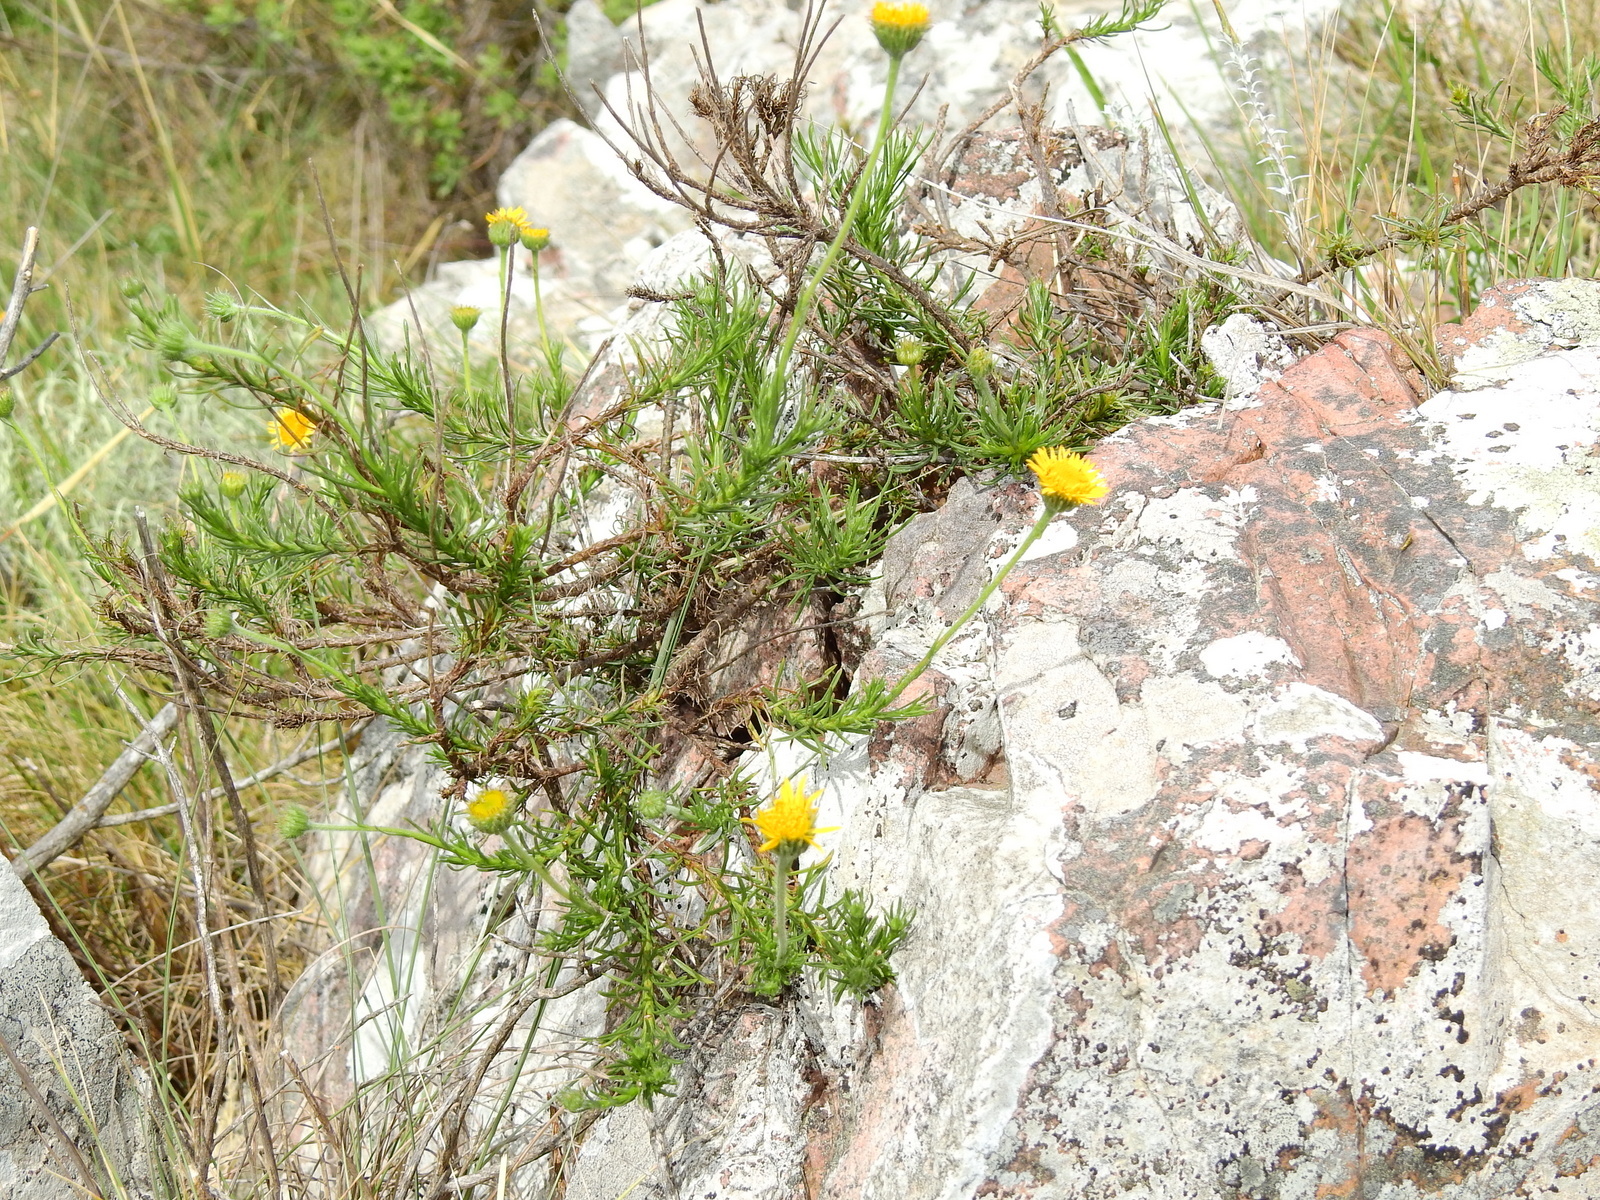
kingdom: Plantae
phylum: Tracheophyta
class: Magnoliopsida
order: Asterales
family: Asteraceae
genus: Neja
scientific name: Neja pinifolia
